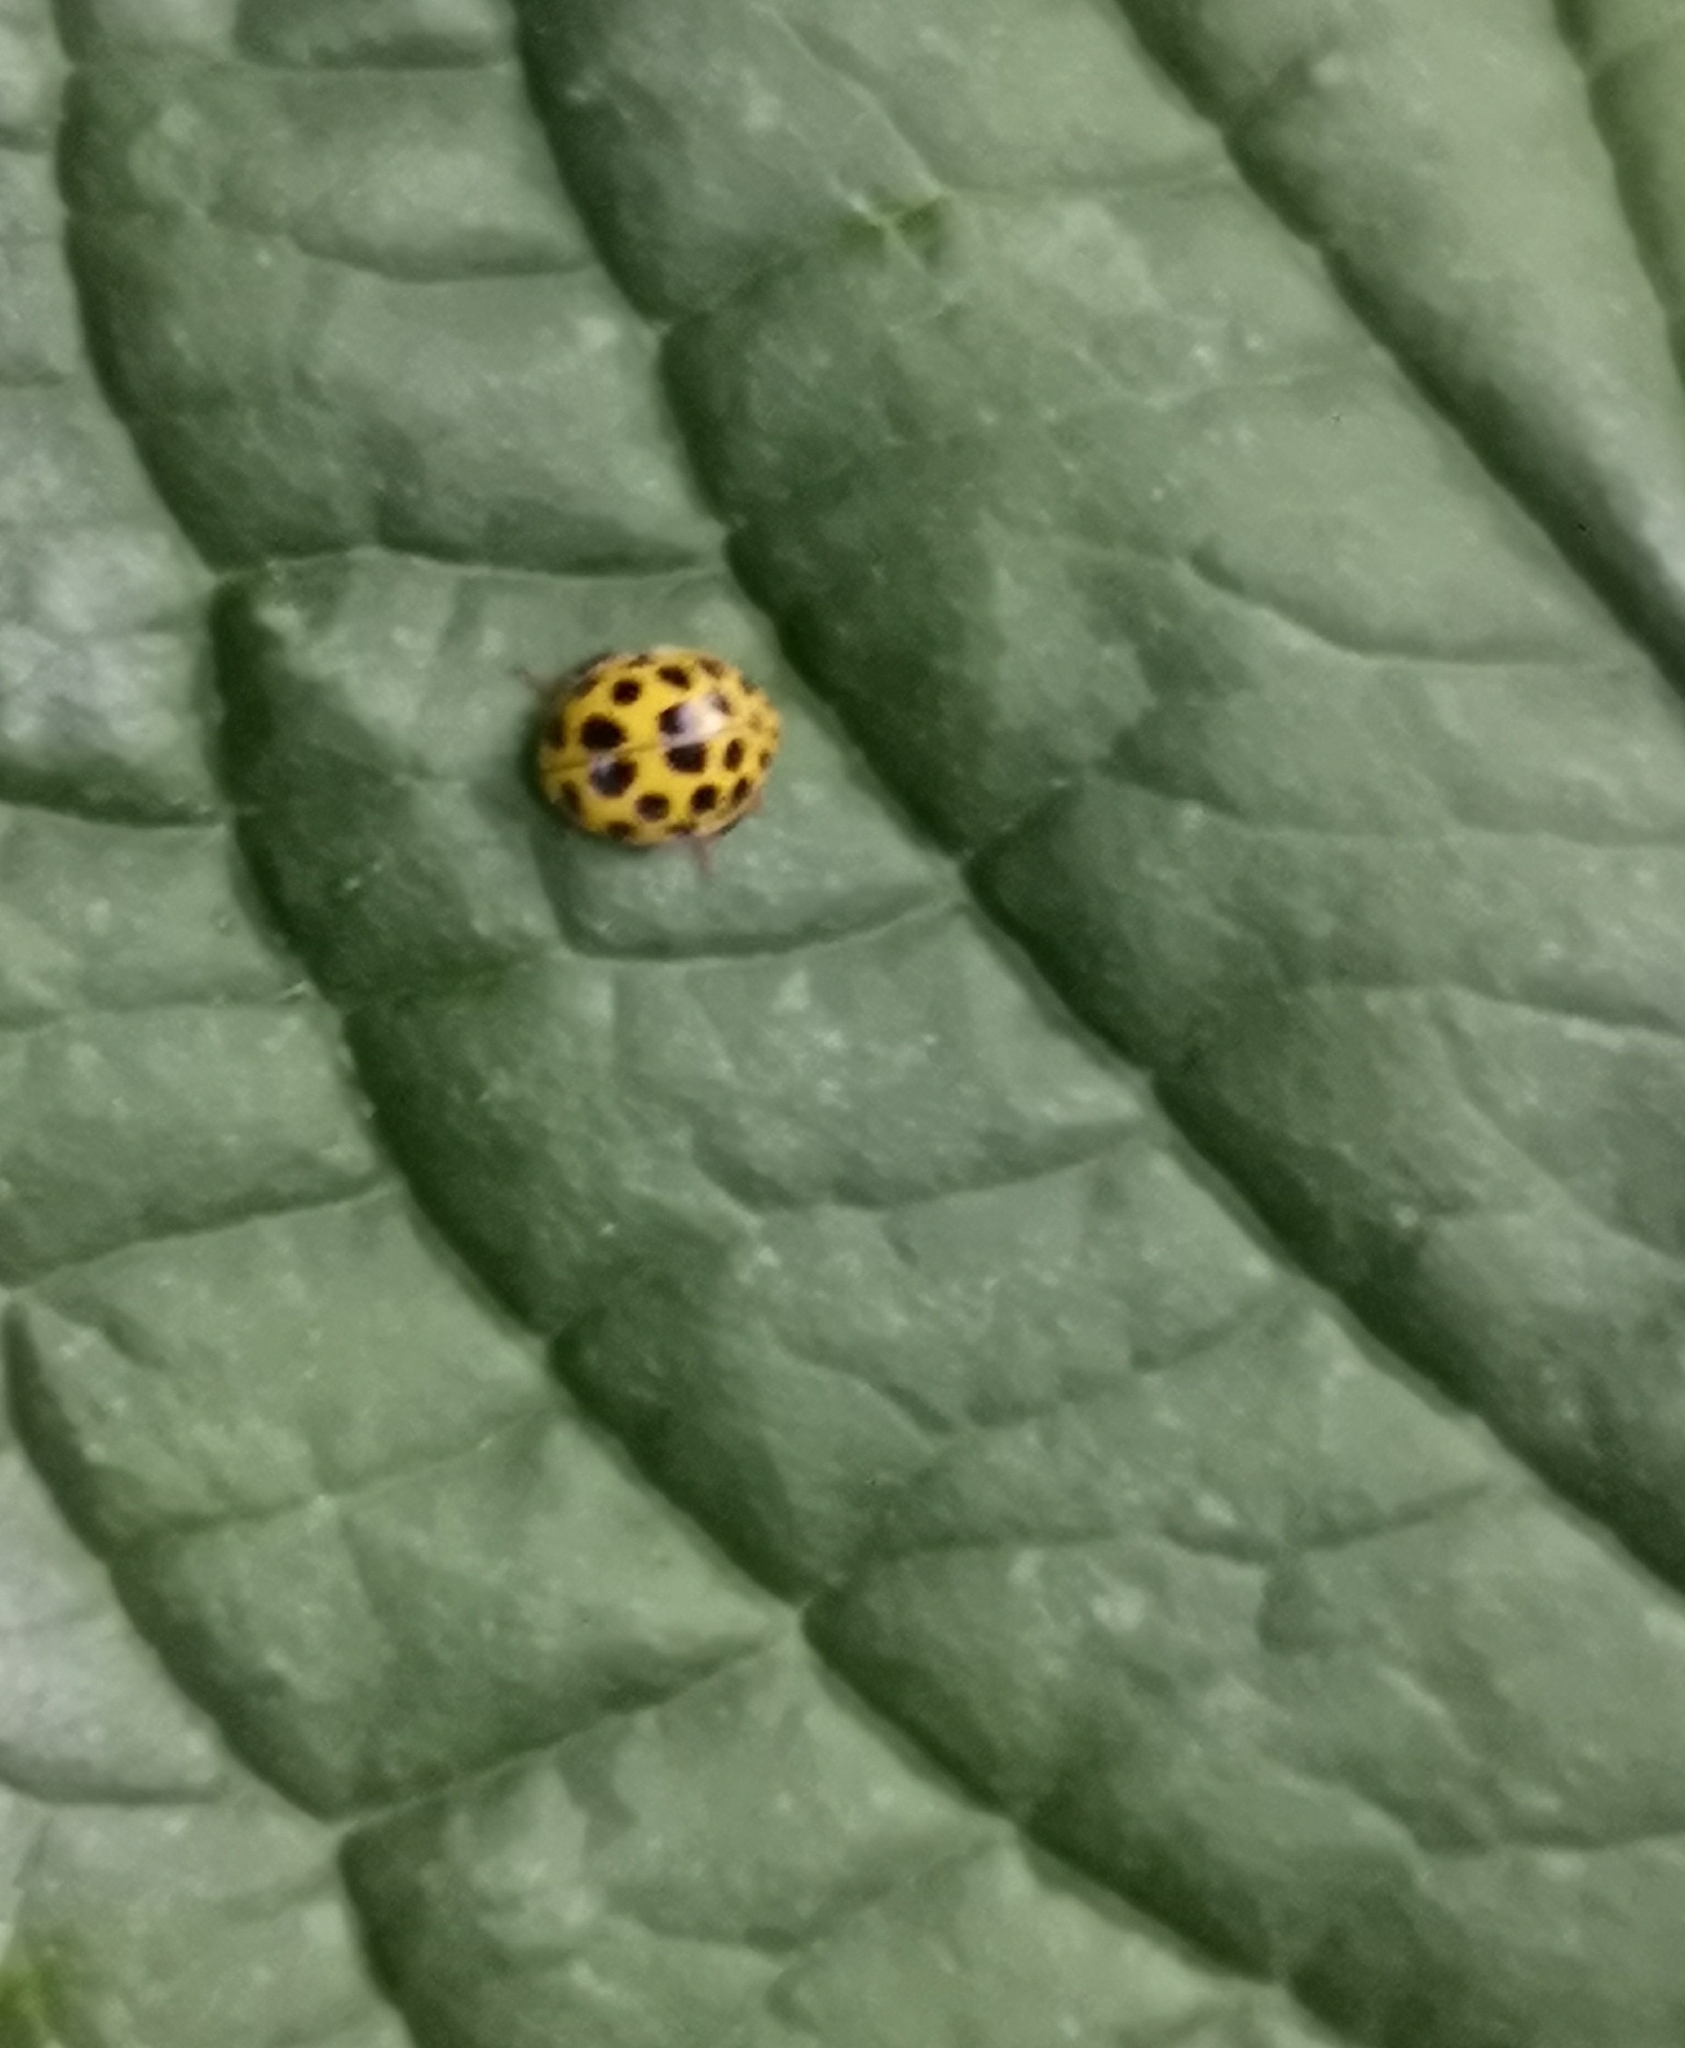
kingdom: Animalia
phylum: Arthropoda
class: Insecta
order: Coleoptera
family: Coccinellidae
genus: Psyllobora
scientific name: Psyllobora vigintiduopunctata
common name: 22-spot ladybird
